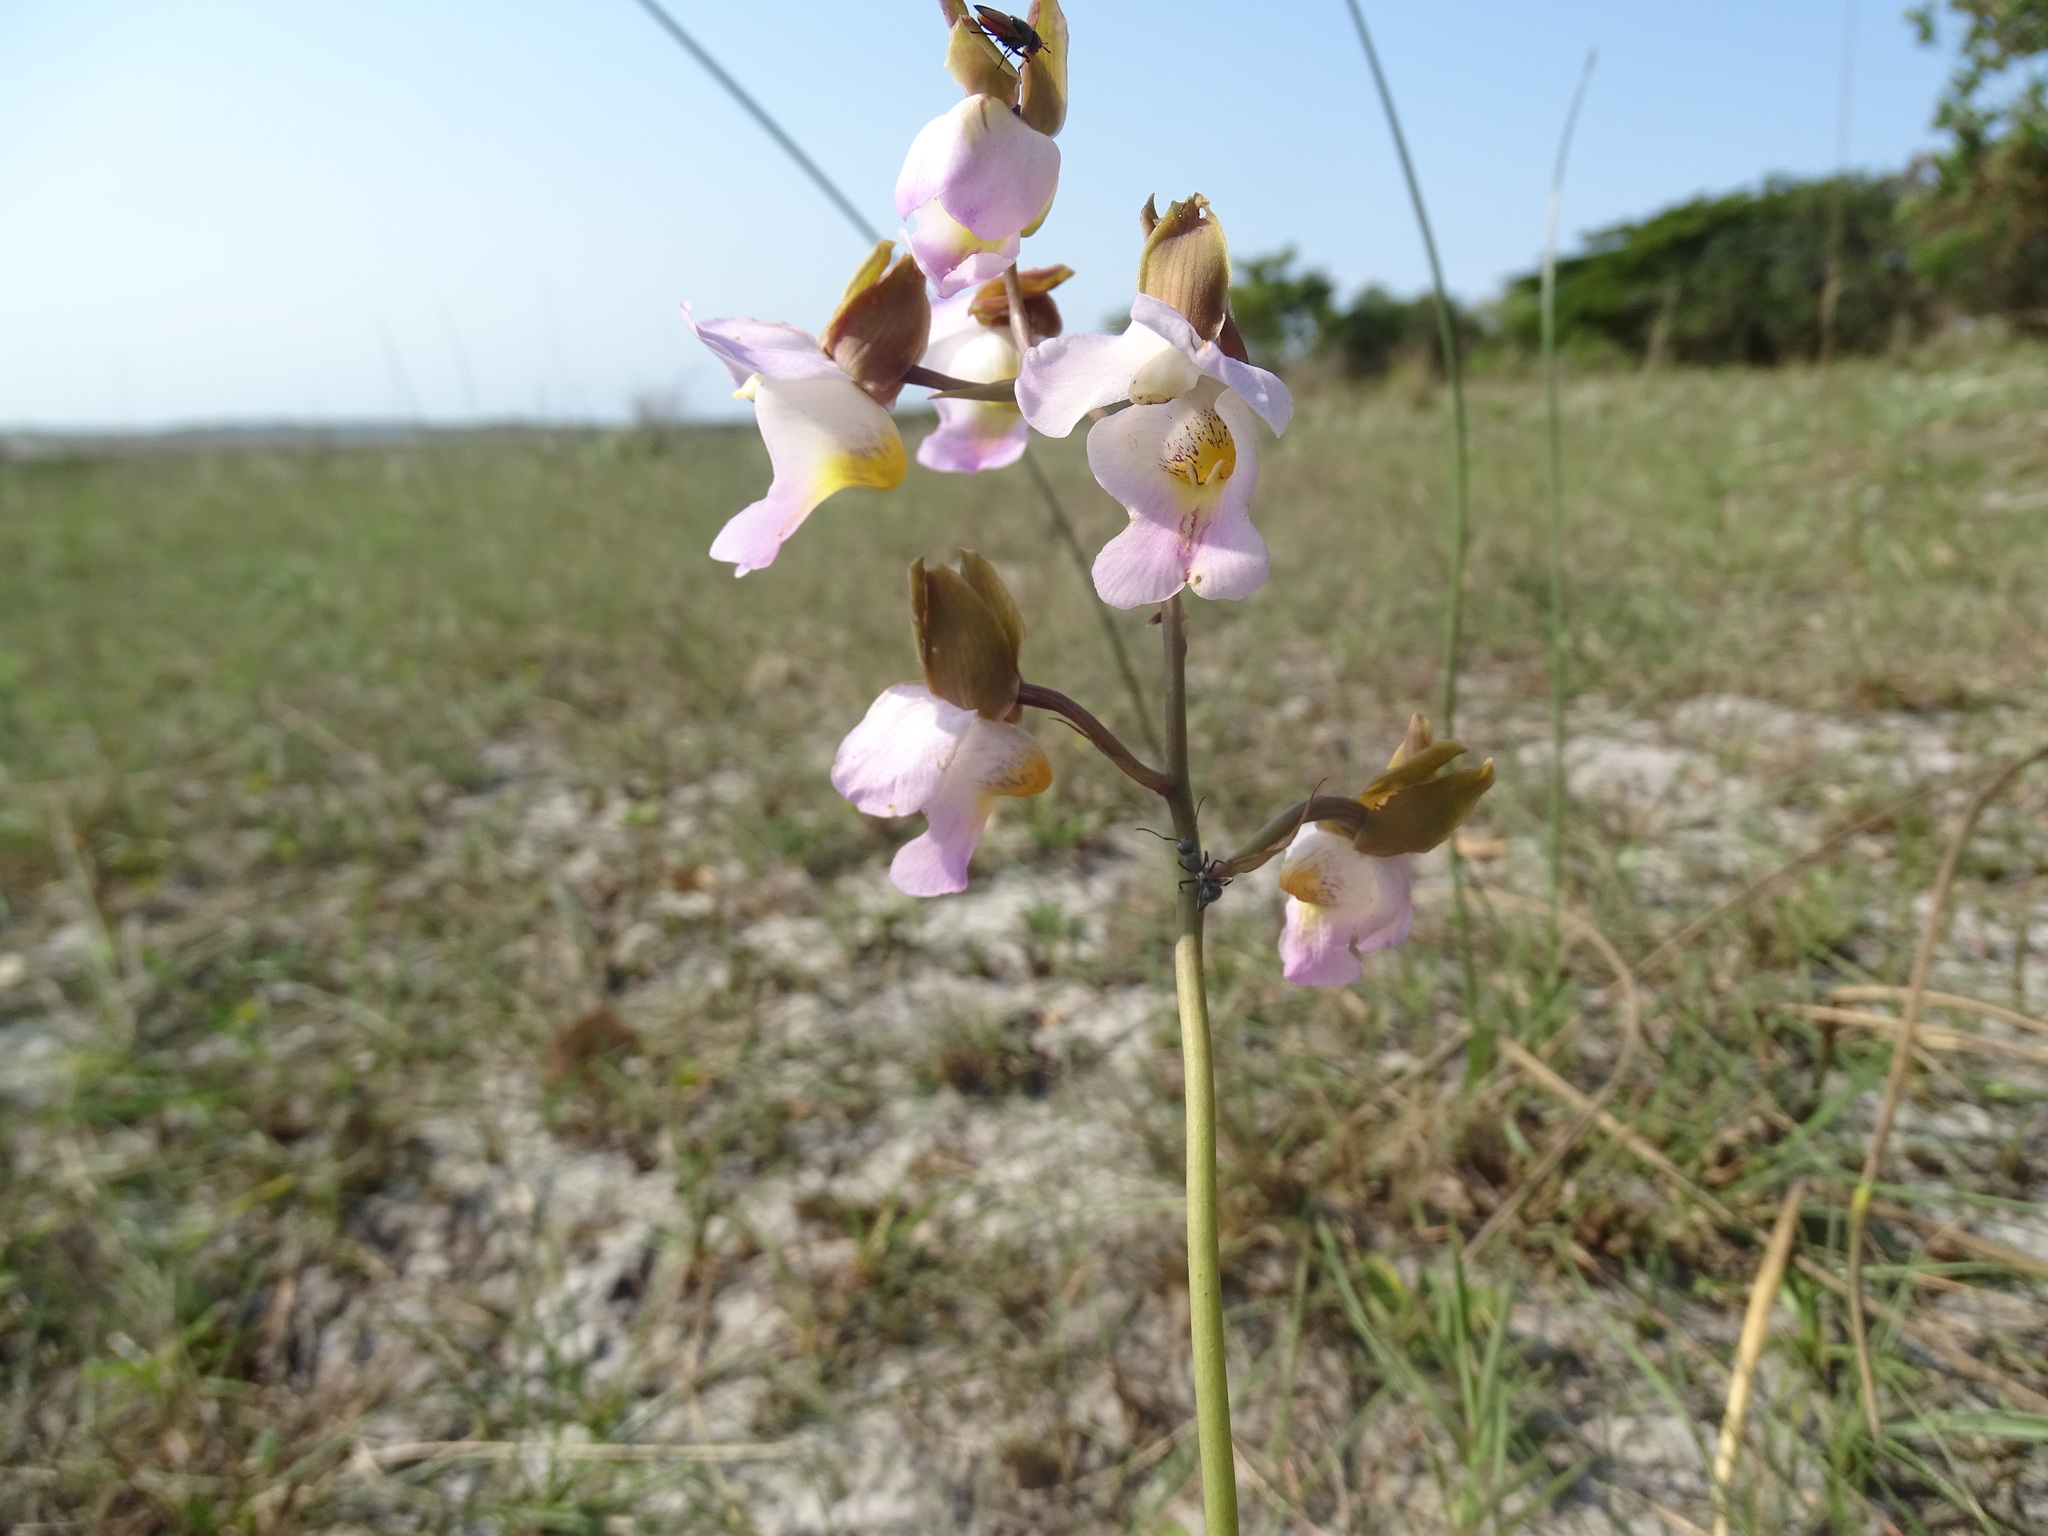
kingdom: Plantae
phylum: Tracheophyta
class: Liliopsida
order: Asparagales
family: Orchidaceae
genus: Eulophia
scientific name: Eulophia cucullata
